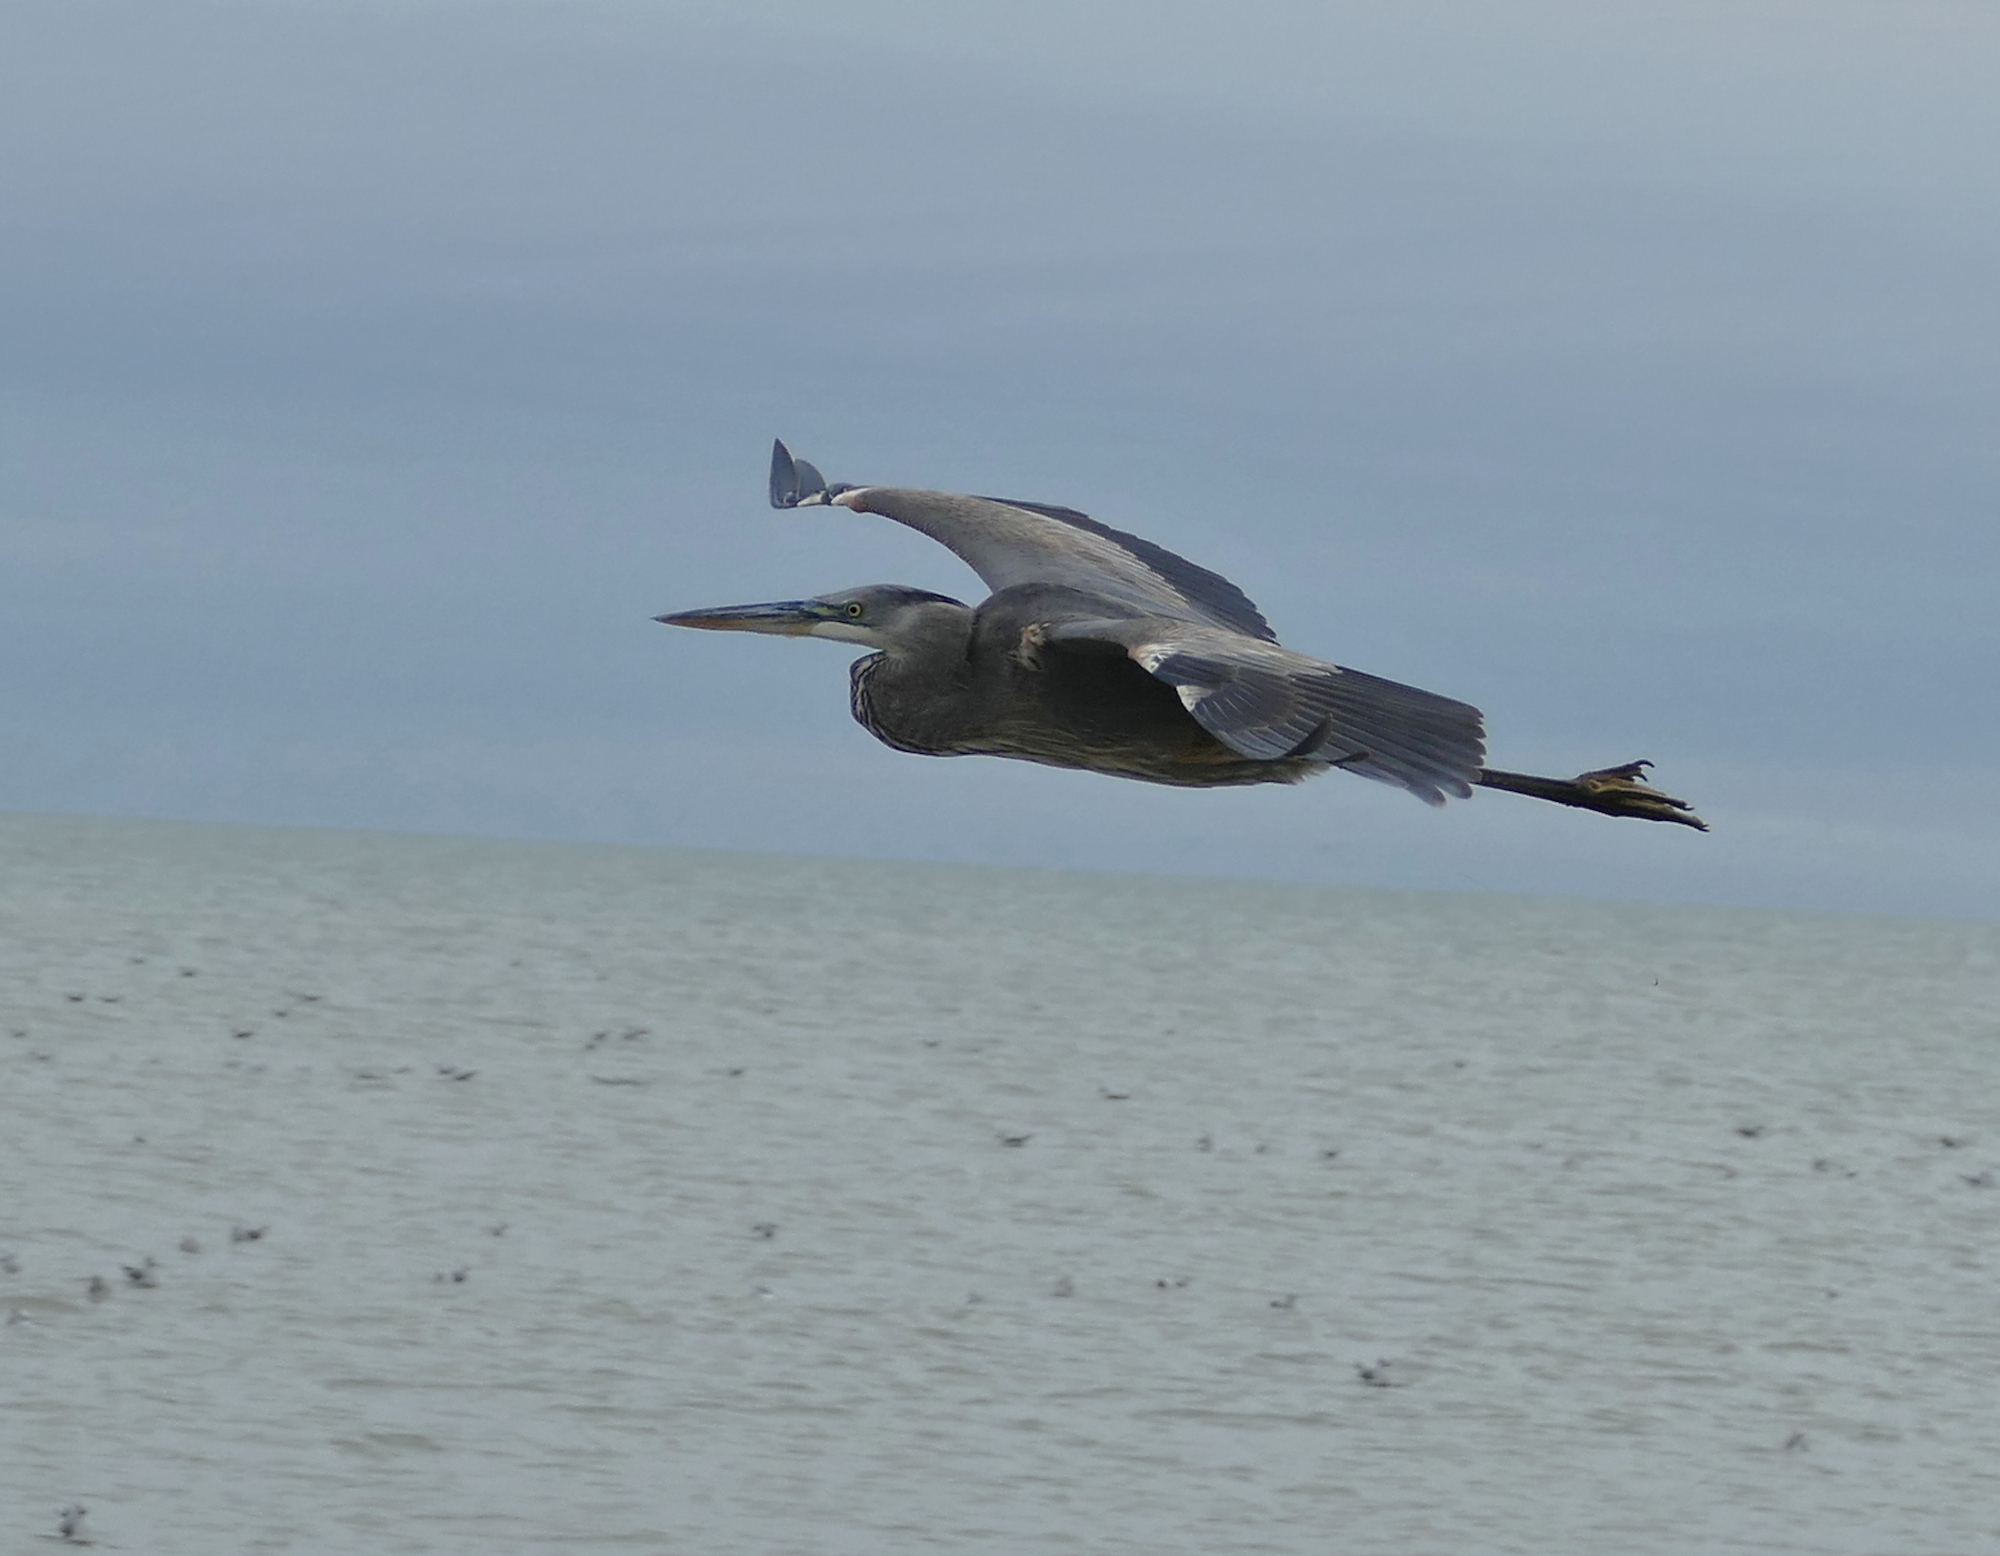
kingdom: Animalia
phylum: Chordata
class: Aves
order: Pelecaniformes
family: Ardeidae
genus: Ardea
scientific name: Ardea herodias
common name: Great blue heron
